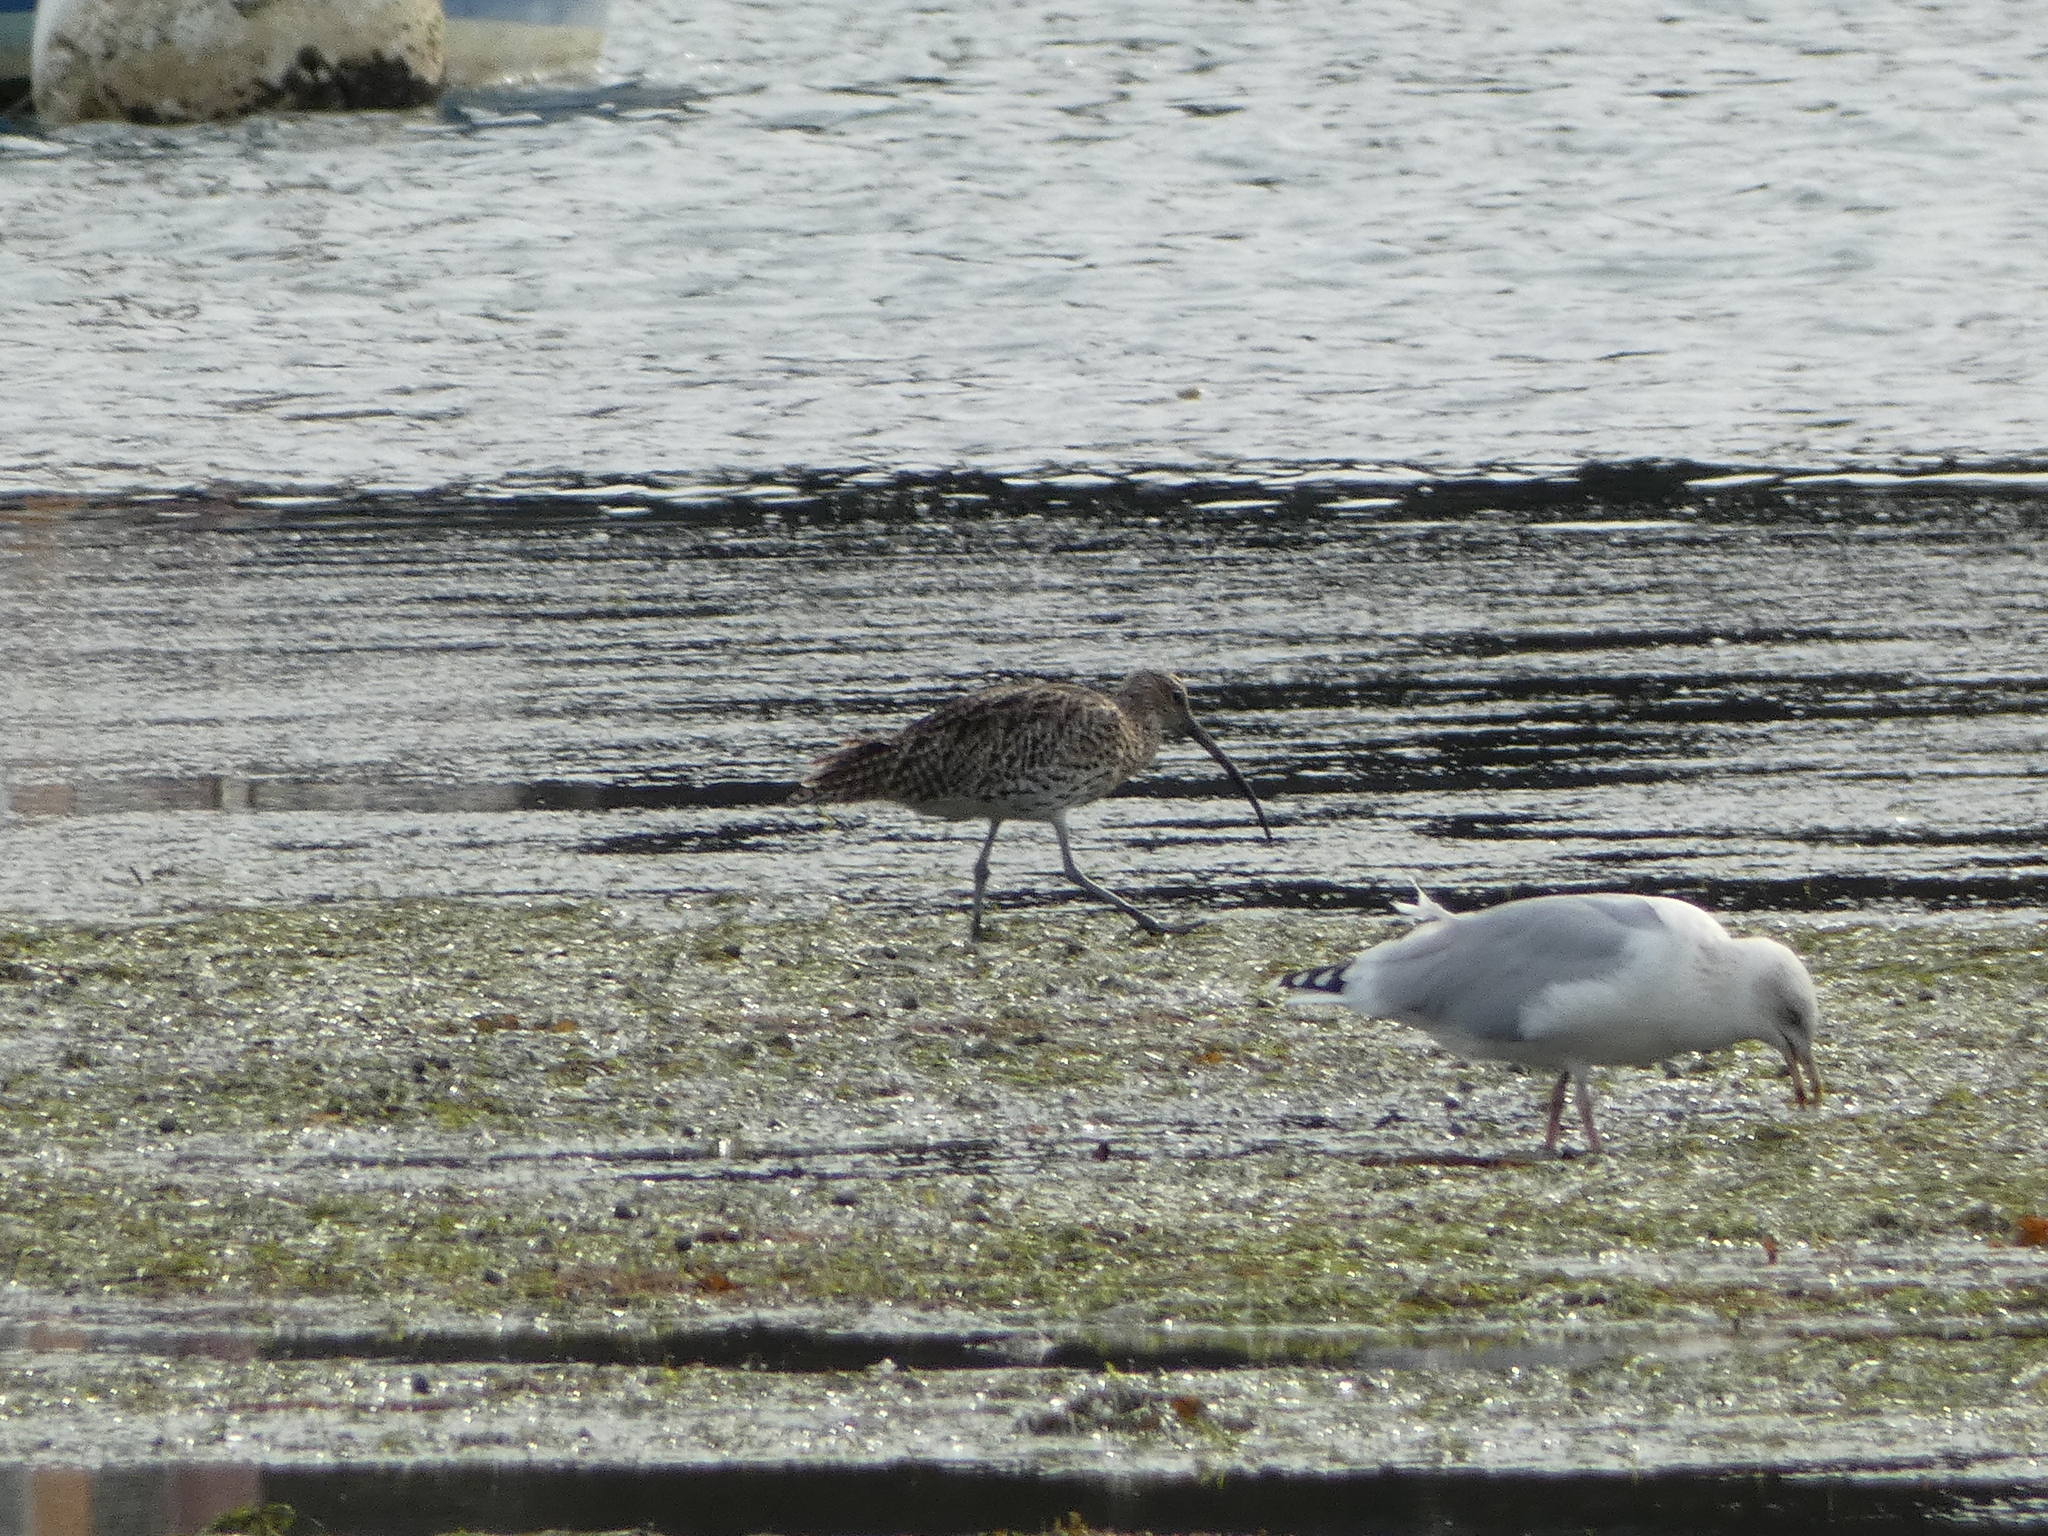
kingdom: Animalia
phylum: Chordata
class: Aves
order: Charadriiformes
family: Scolopacidae
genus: Numenius
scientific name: Numenius arquata
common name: Eurasian curlew
